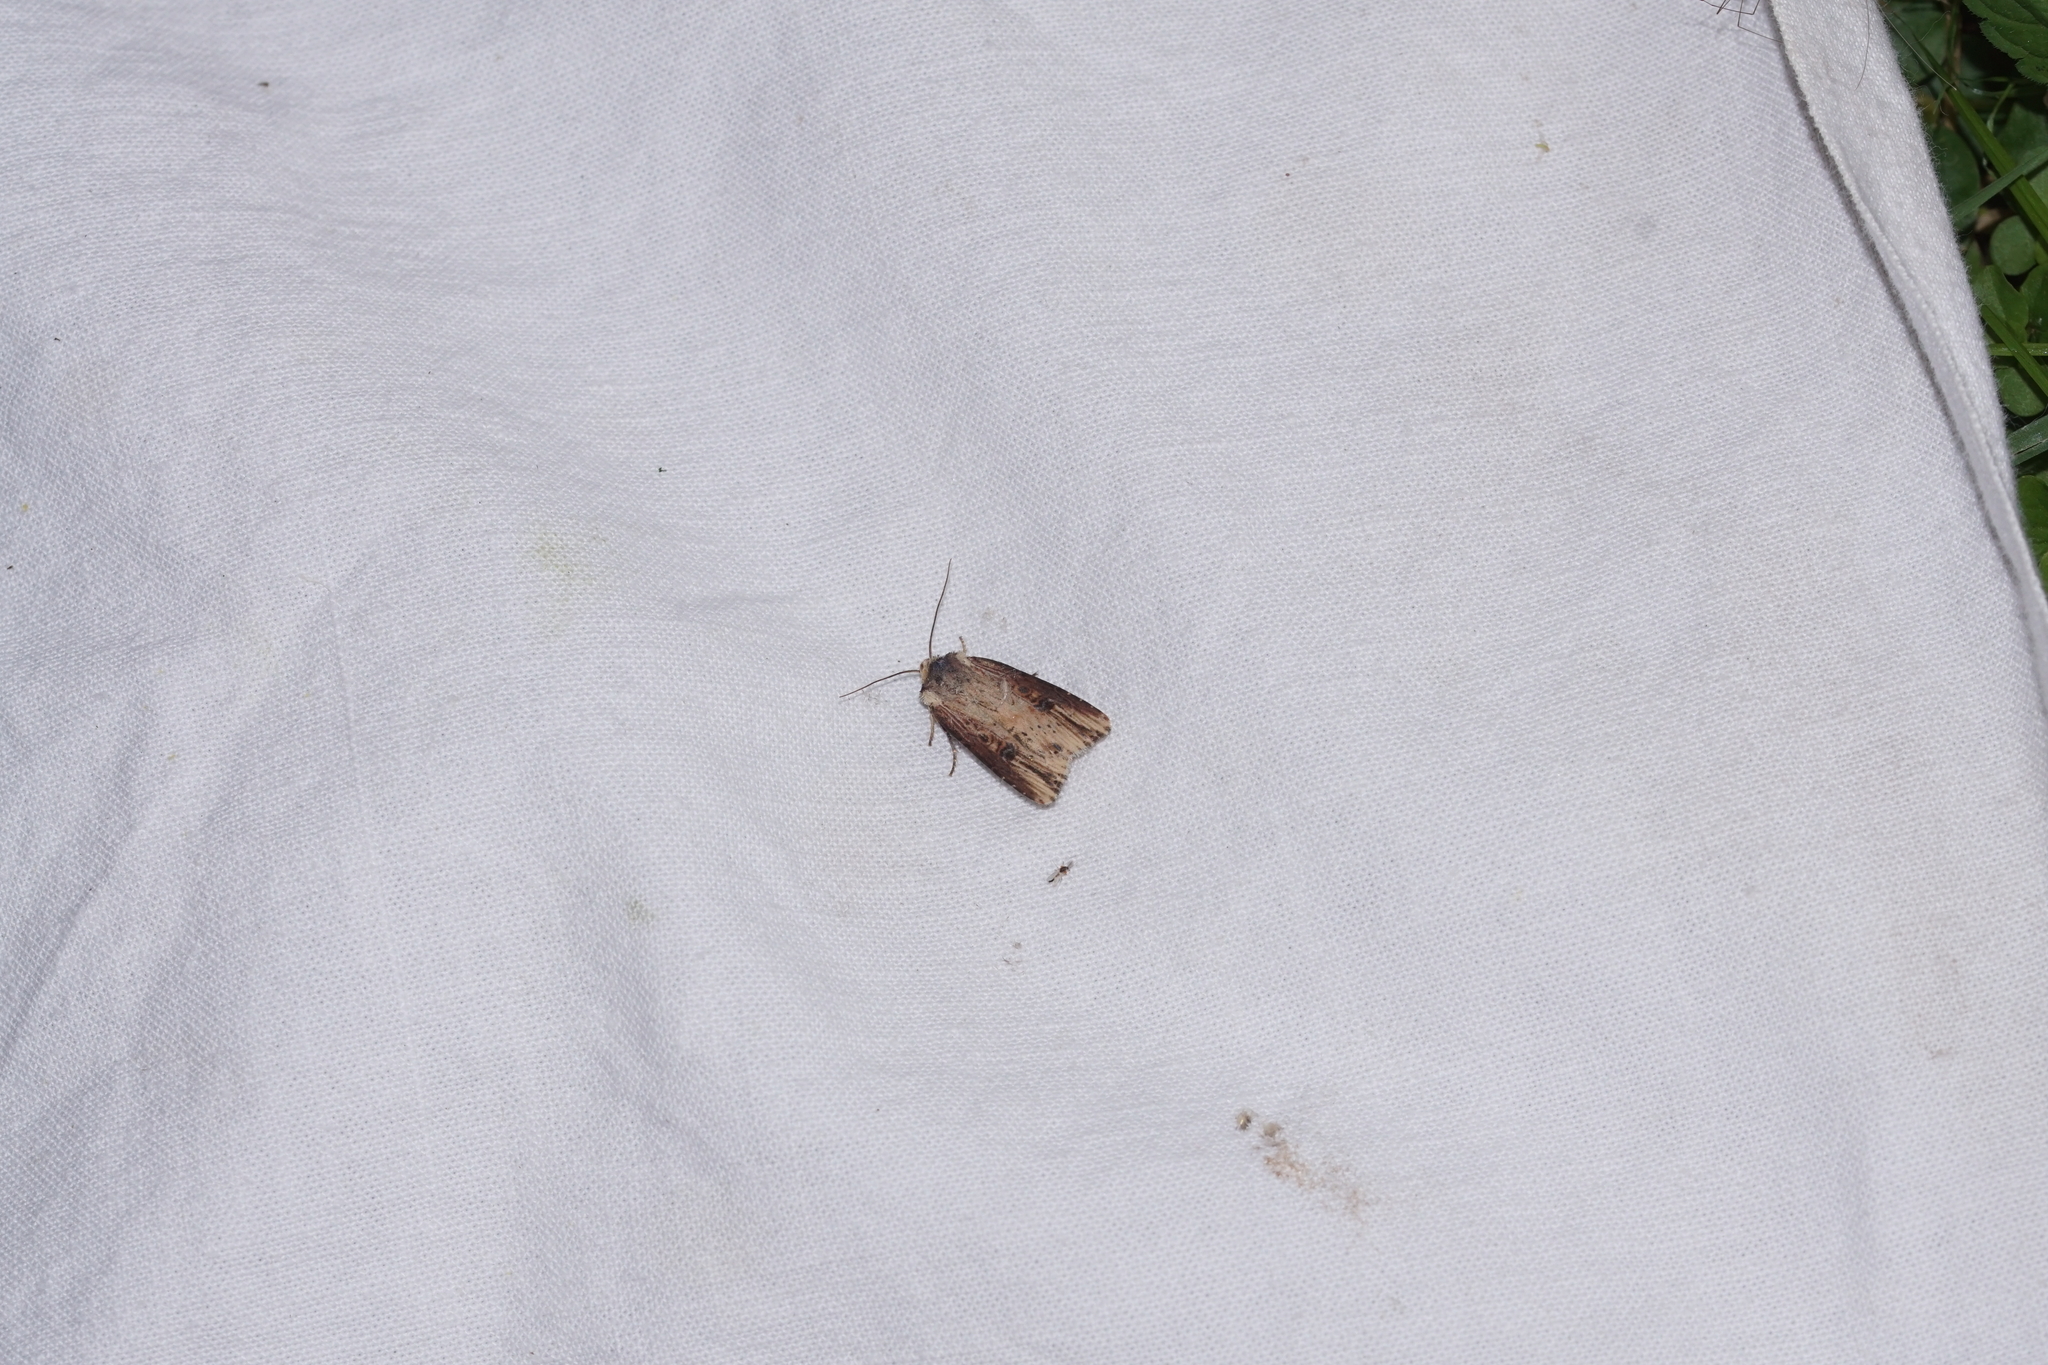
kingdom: Animalia
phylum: Arthropoda
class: Insecta
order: Lepidoptera
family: Noctuidae
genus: Axylia
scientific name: Axylia putris
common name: Flame
